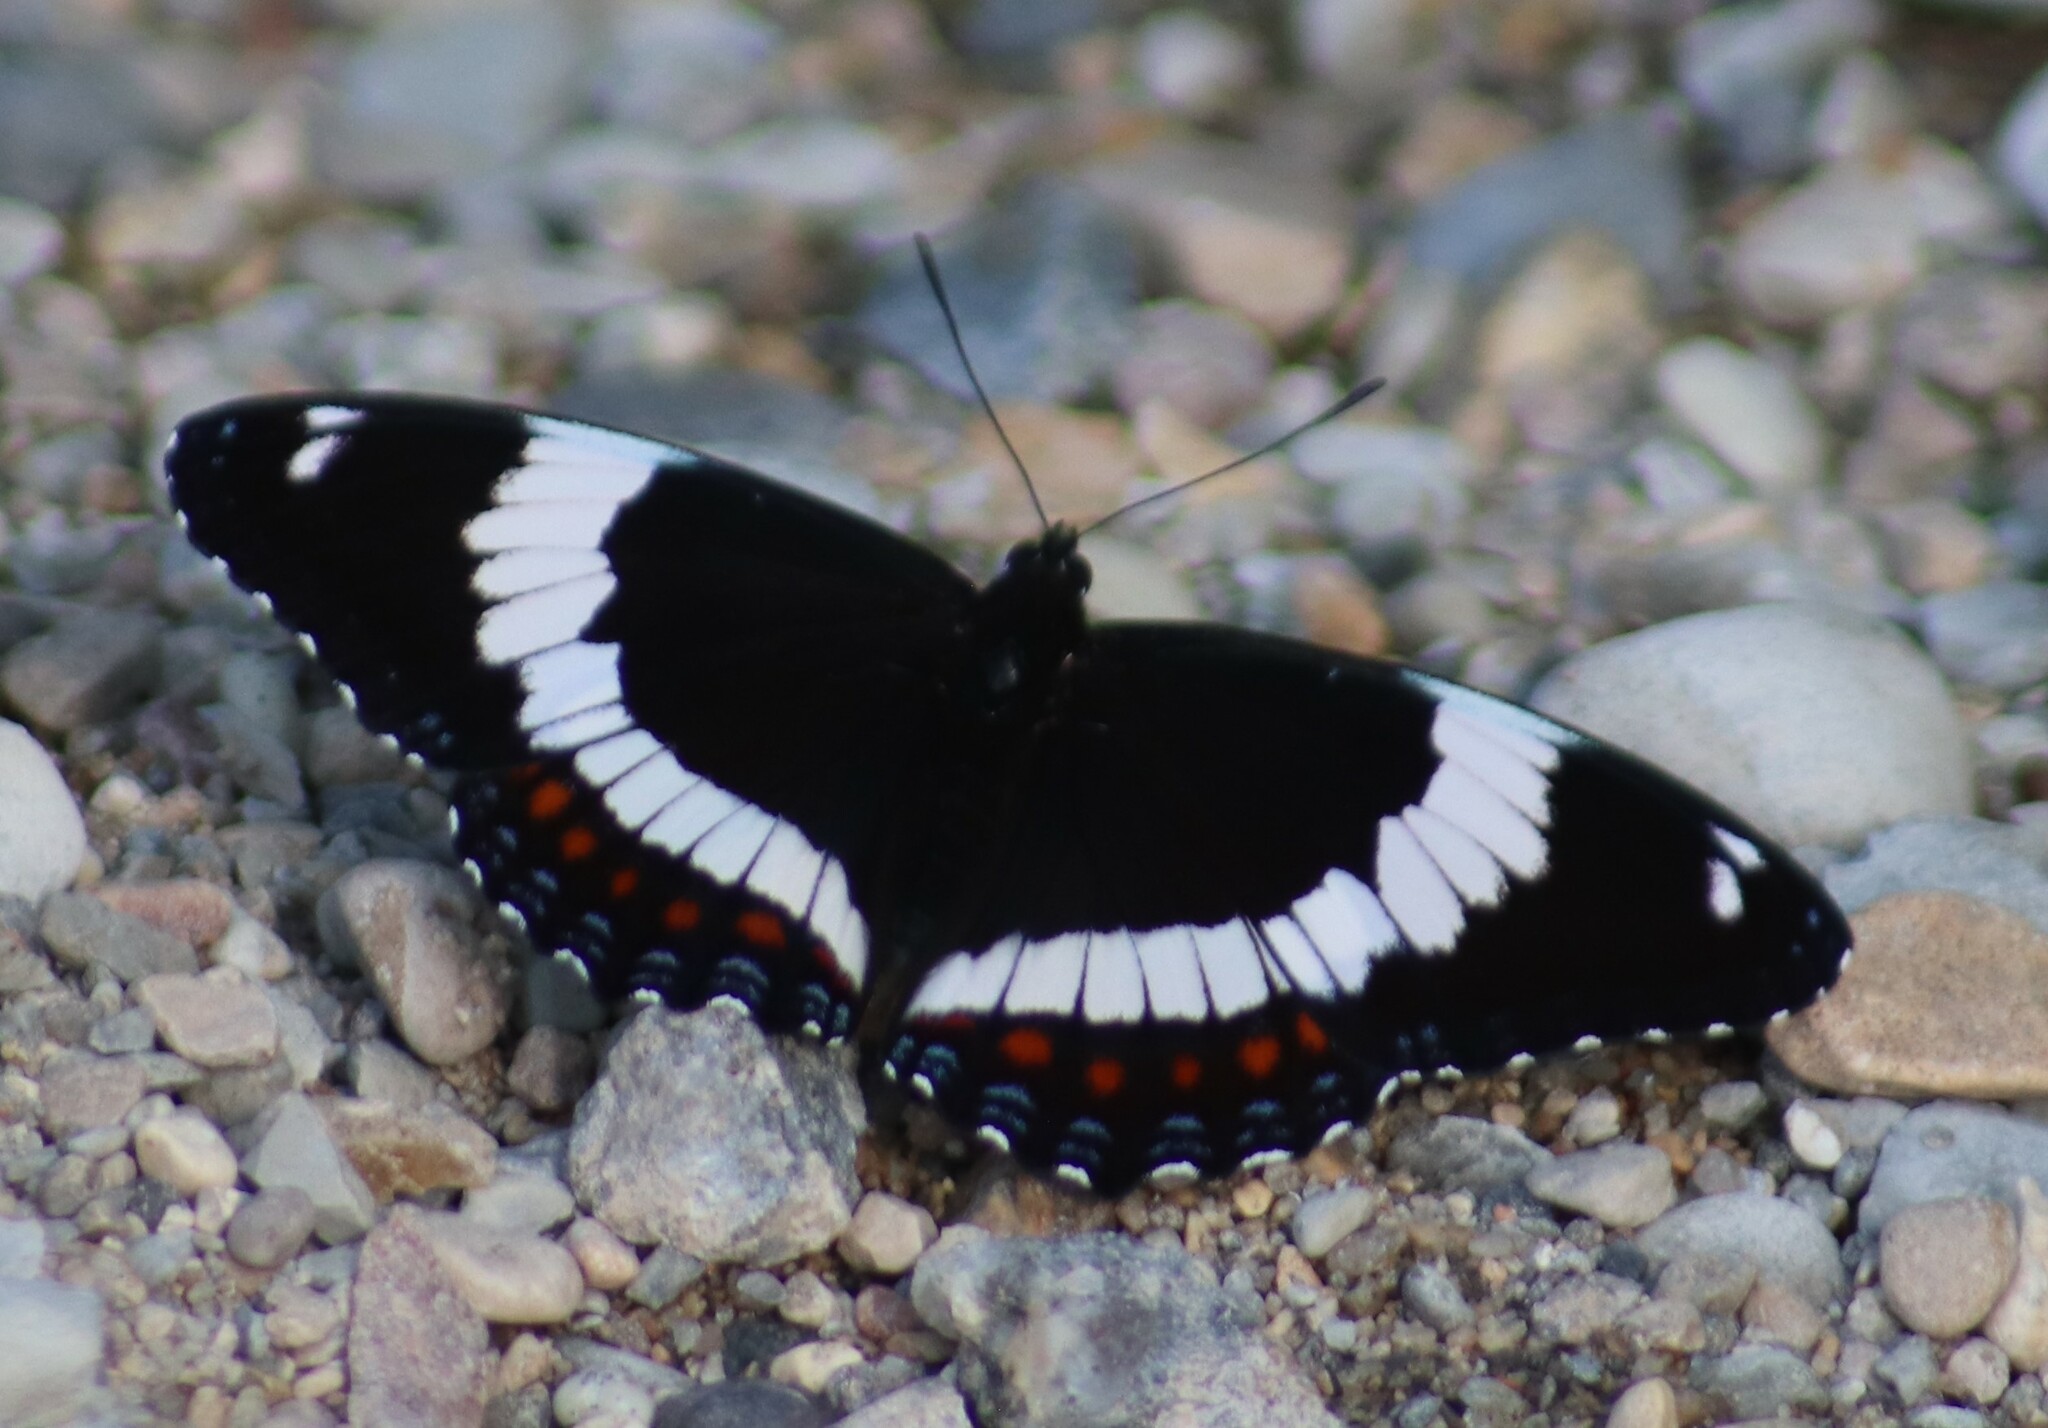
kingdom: Animalia
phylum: Arthropoda
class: Insecta
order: Lepidoptera
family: Nymphalidae
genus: Limenitis
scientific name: Limenitis arthemis
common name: Red-spotted admiral
